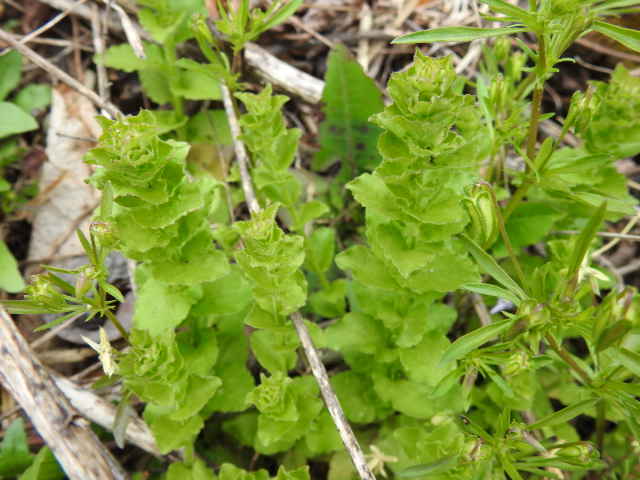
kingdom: Plantae
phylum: Tracheophyta
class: Magnoliopsida
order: Asterales
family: Campanulaceae
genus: Triodanis
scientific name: Triodanis perfoliata
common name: Clasping venus' looking-glass
